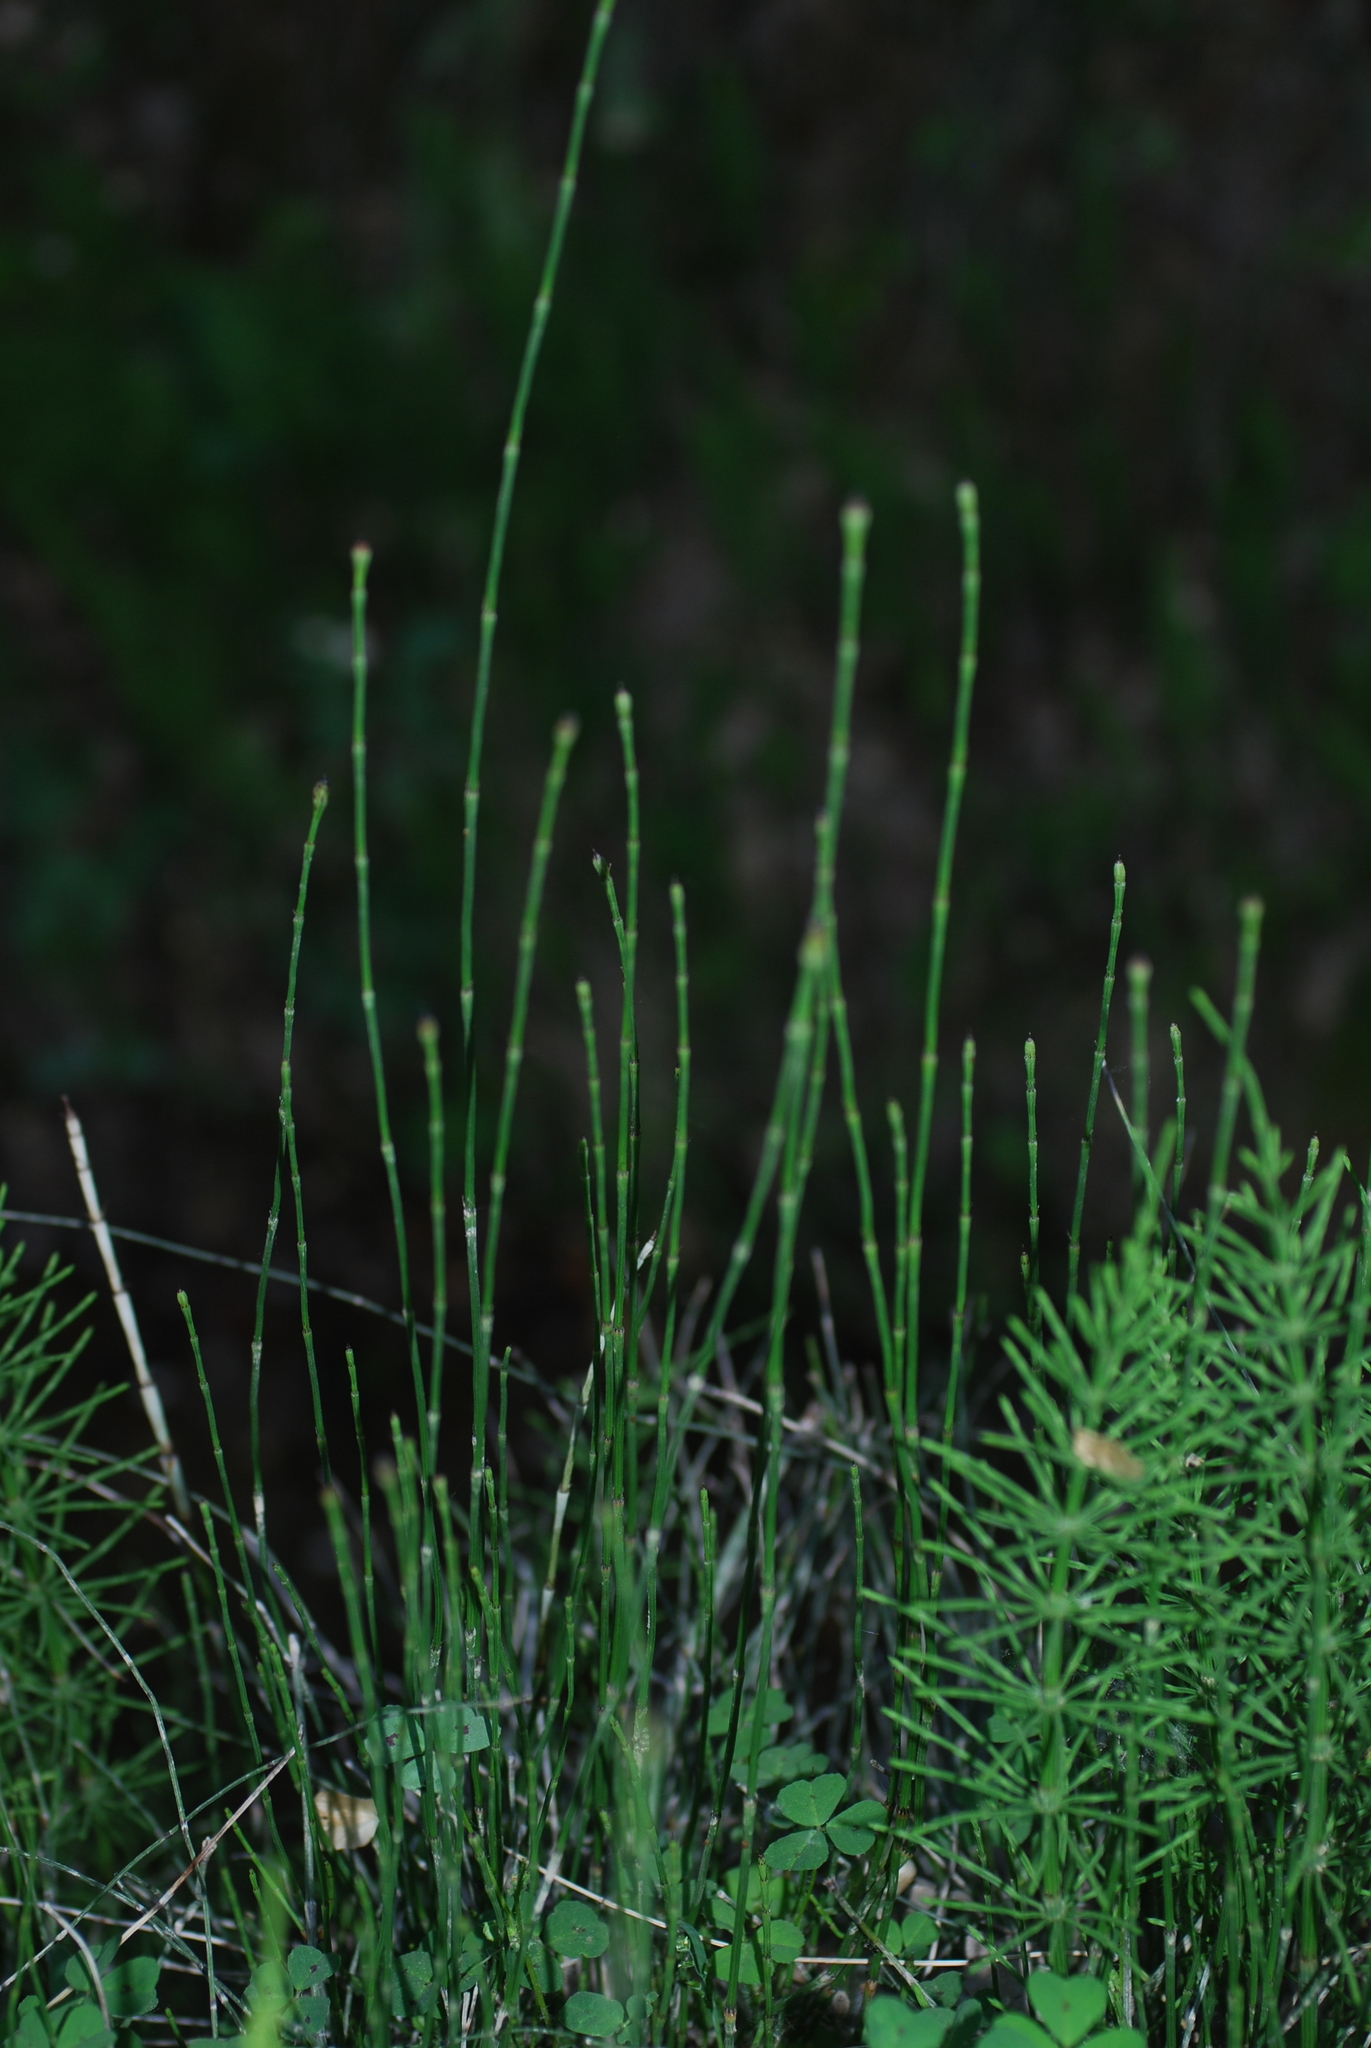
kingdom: Plantae
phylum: Tracheophyta
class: Polypodiopsida
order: Equisetales
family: Equisetaceae
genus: Equisetum
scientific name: Equisetum ramosissimum
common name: Branched horsetail
